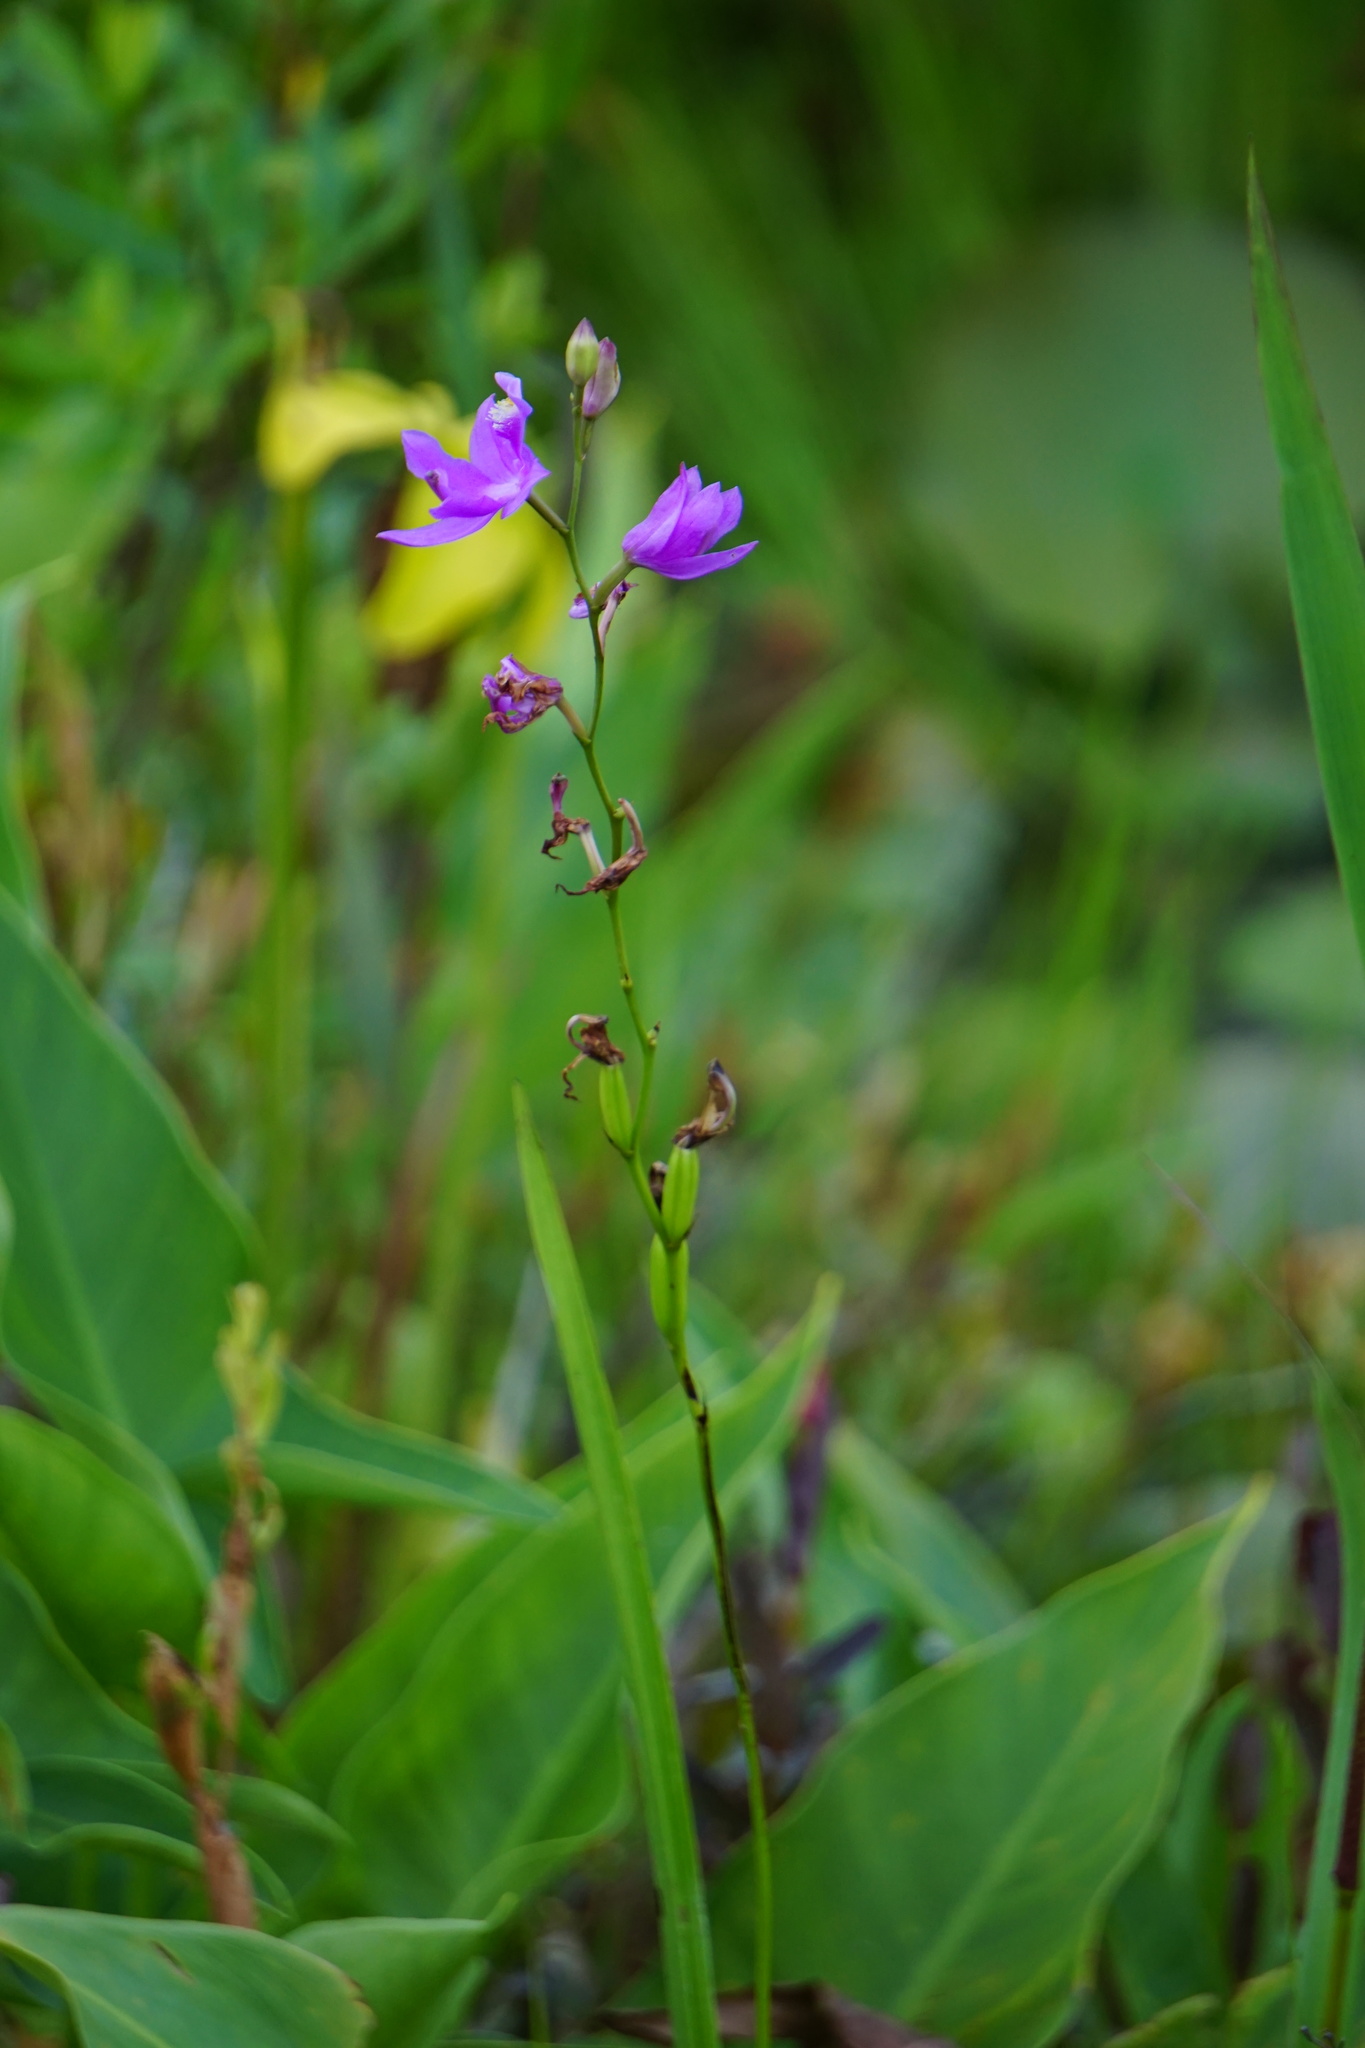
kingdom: Plantae
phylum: Tracheophyta
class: Liliopsida
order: Asparagales
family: Orchidaceae
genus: Calopogon
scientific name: Calopogon tuberosus
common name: Grass-pink
